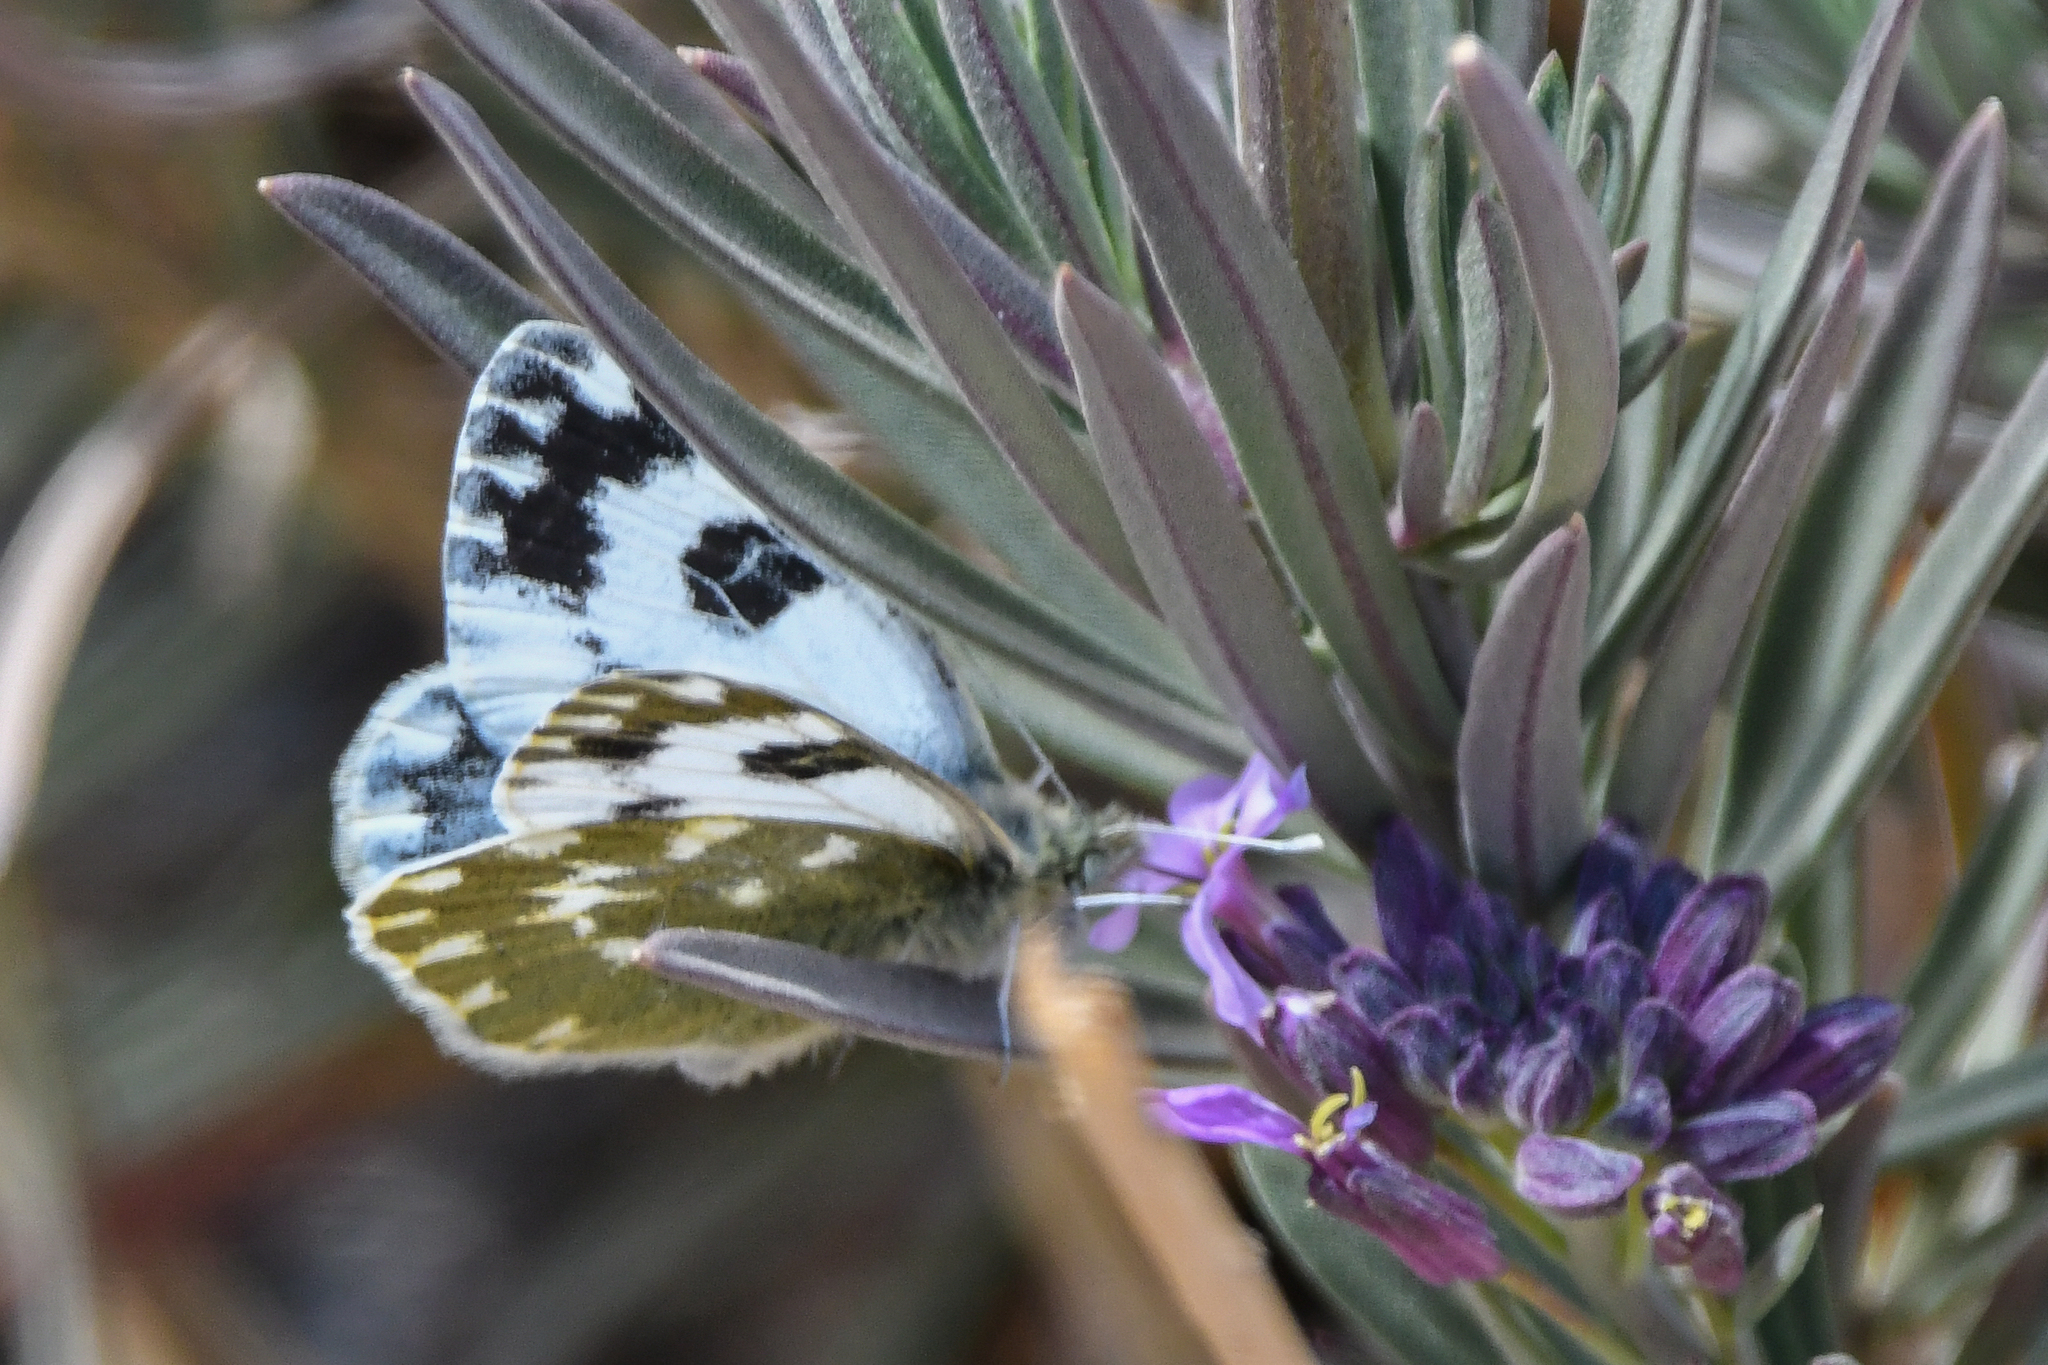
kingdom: Animalia
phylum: Arthropoda
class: Insecta
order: Lepidoptera
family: Pieridae
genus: Pontia
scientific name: Pontia daplidice
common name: Bath white
